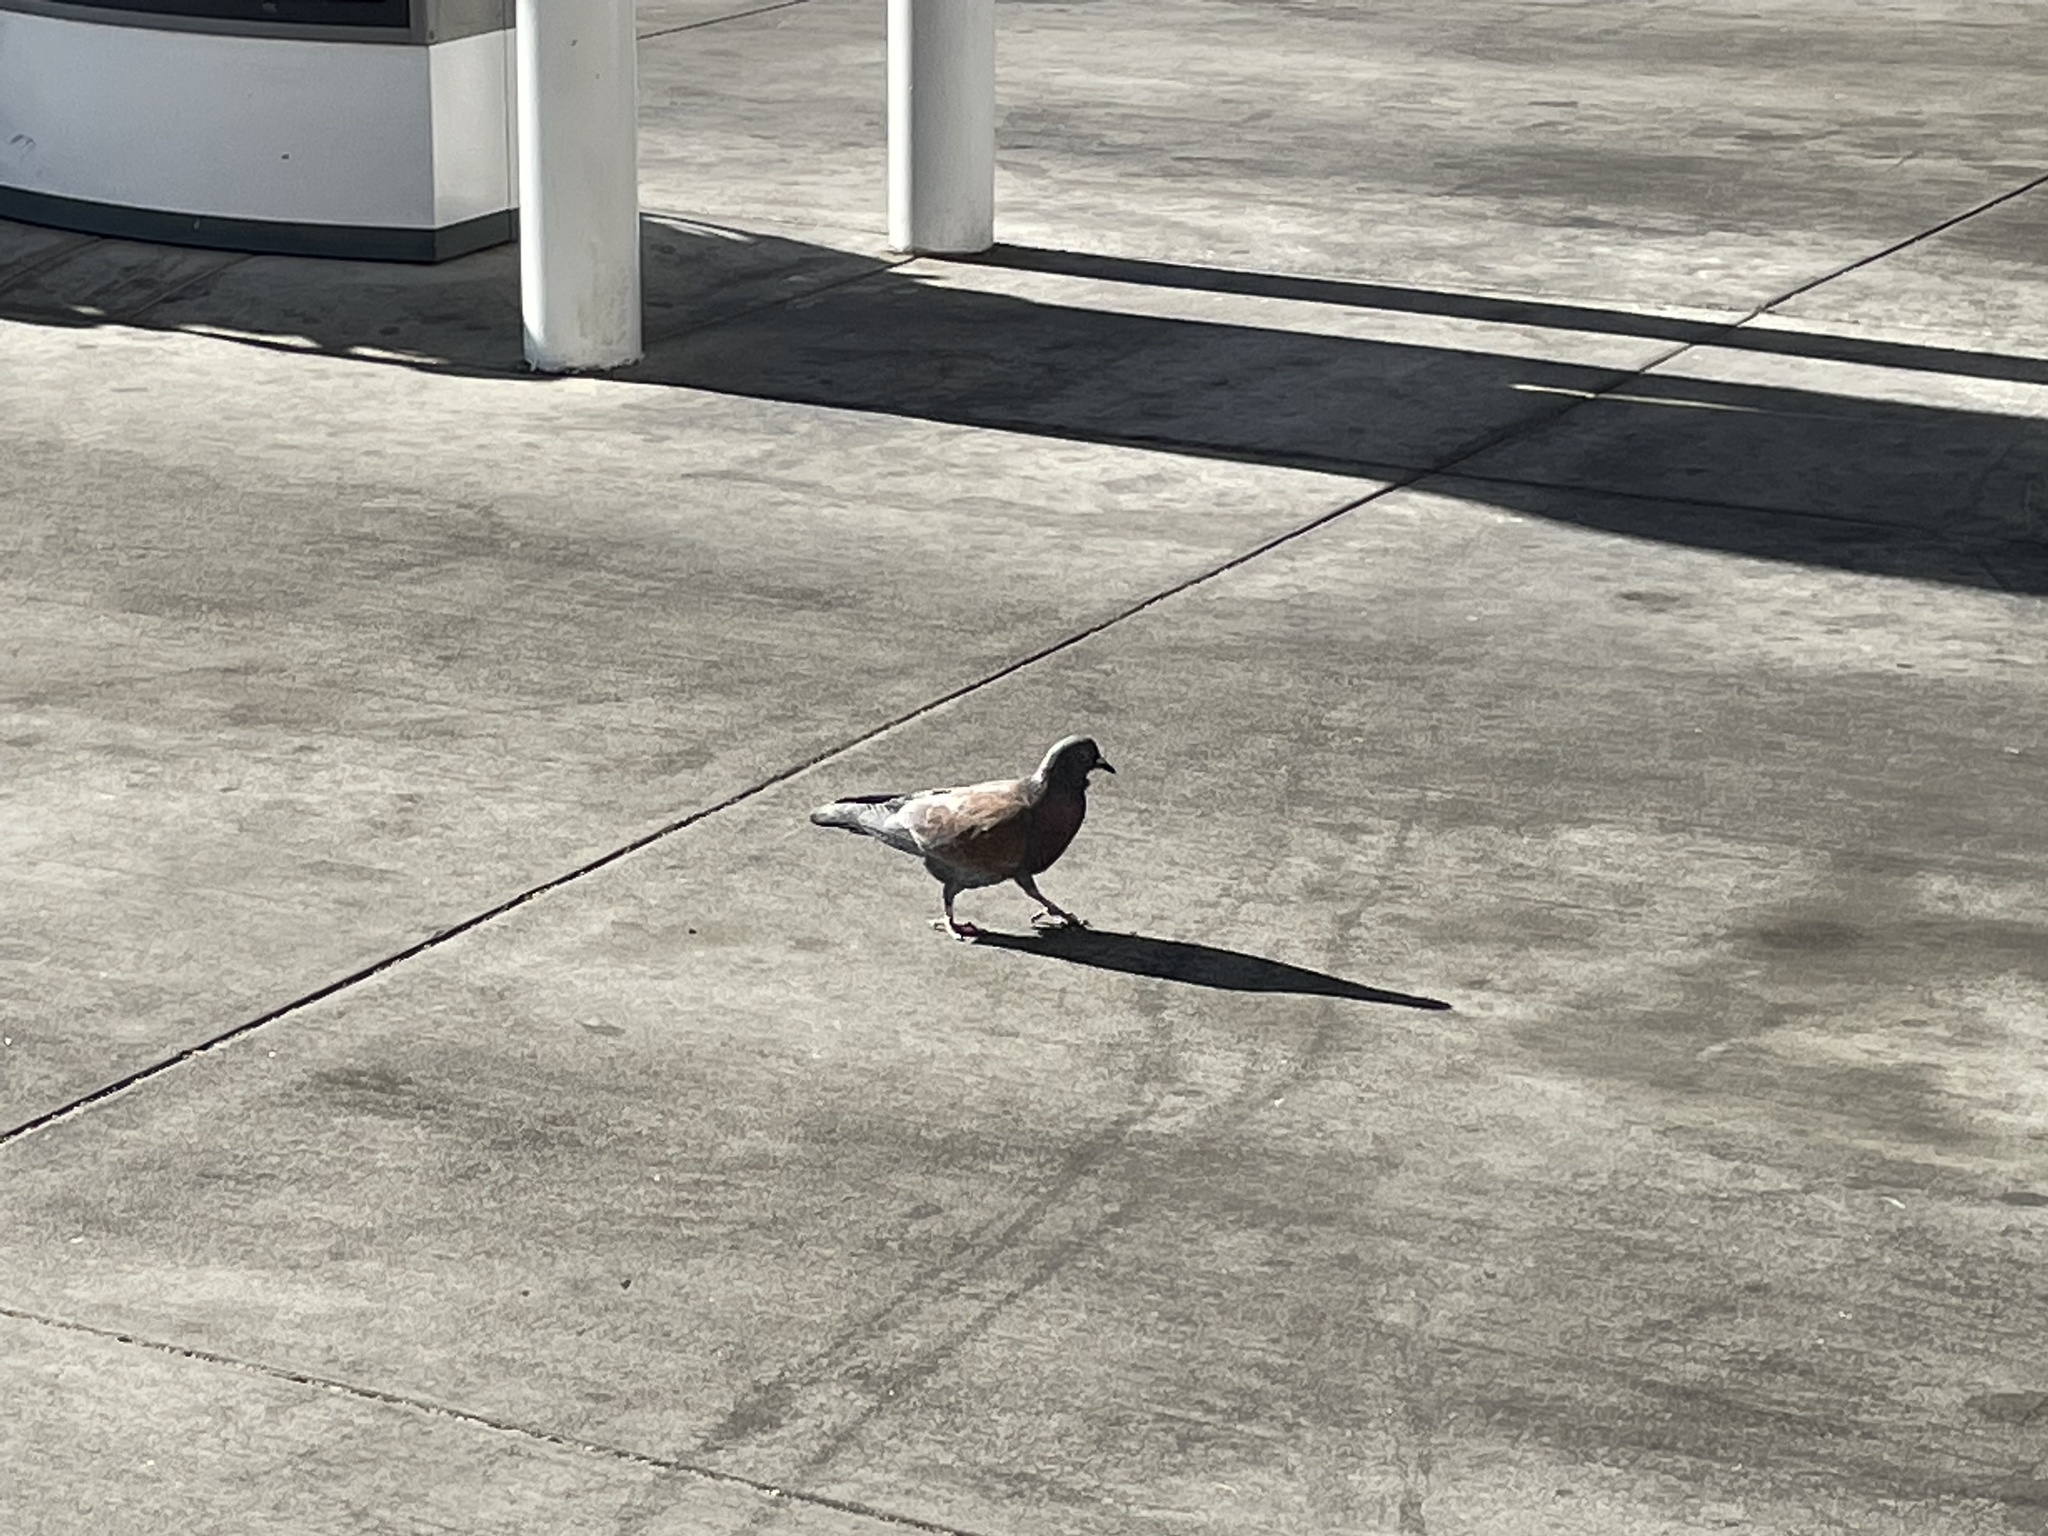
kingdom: Animalia
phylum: Chordata
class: Aves
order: Columbiformes
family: Columbidae
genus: Columba
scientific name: Columba livia
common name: Rock pigeon
